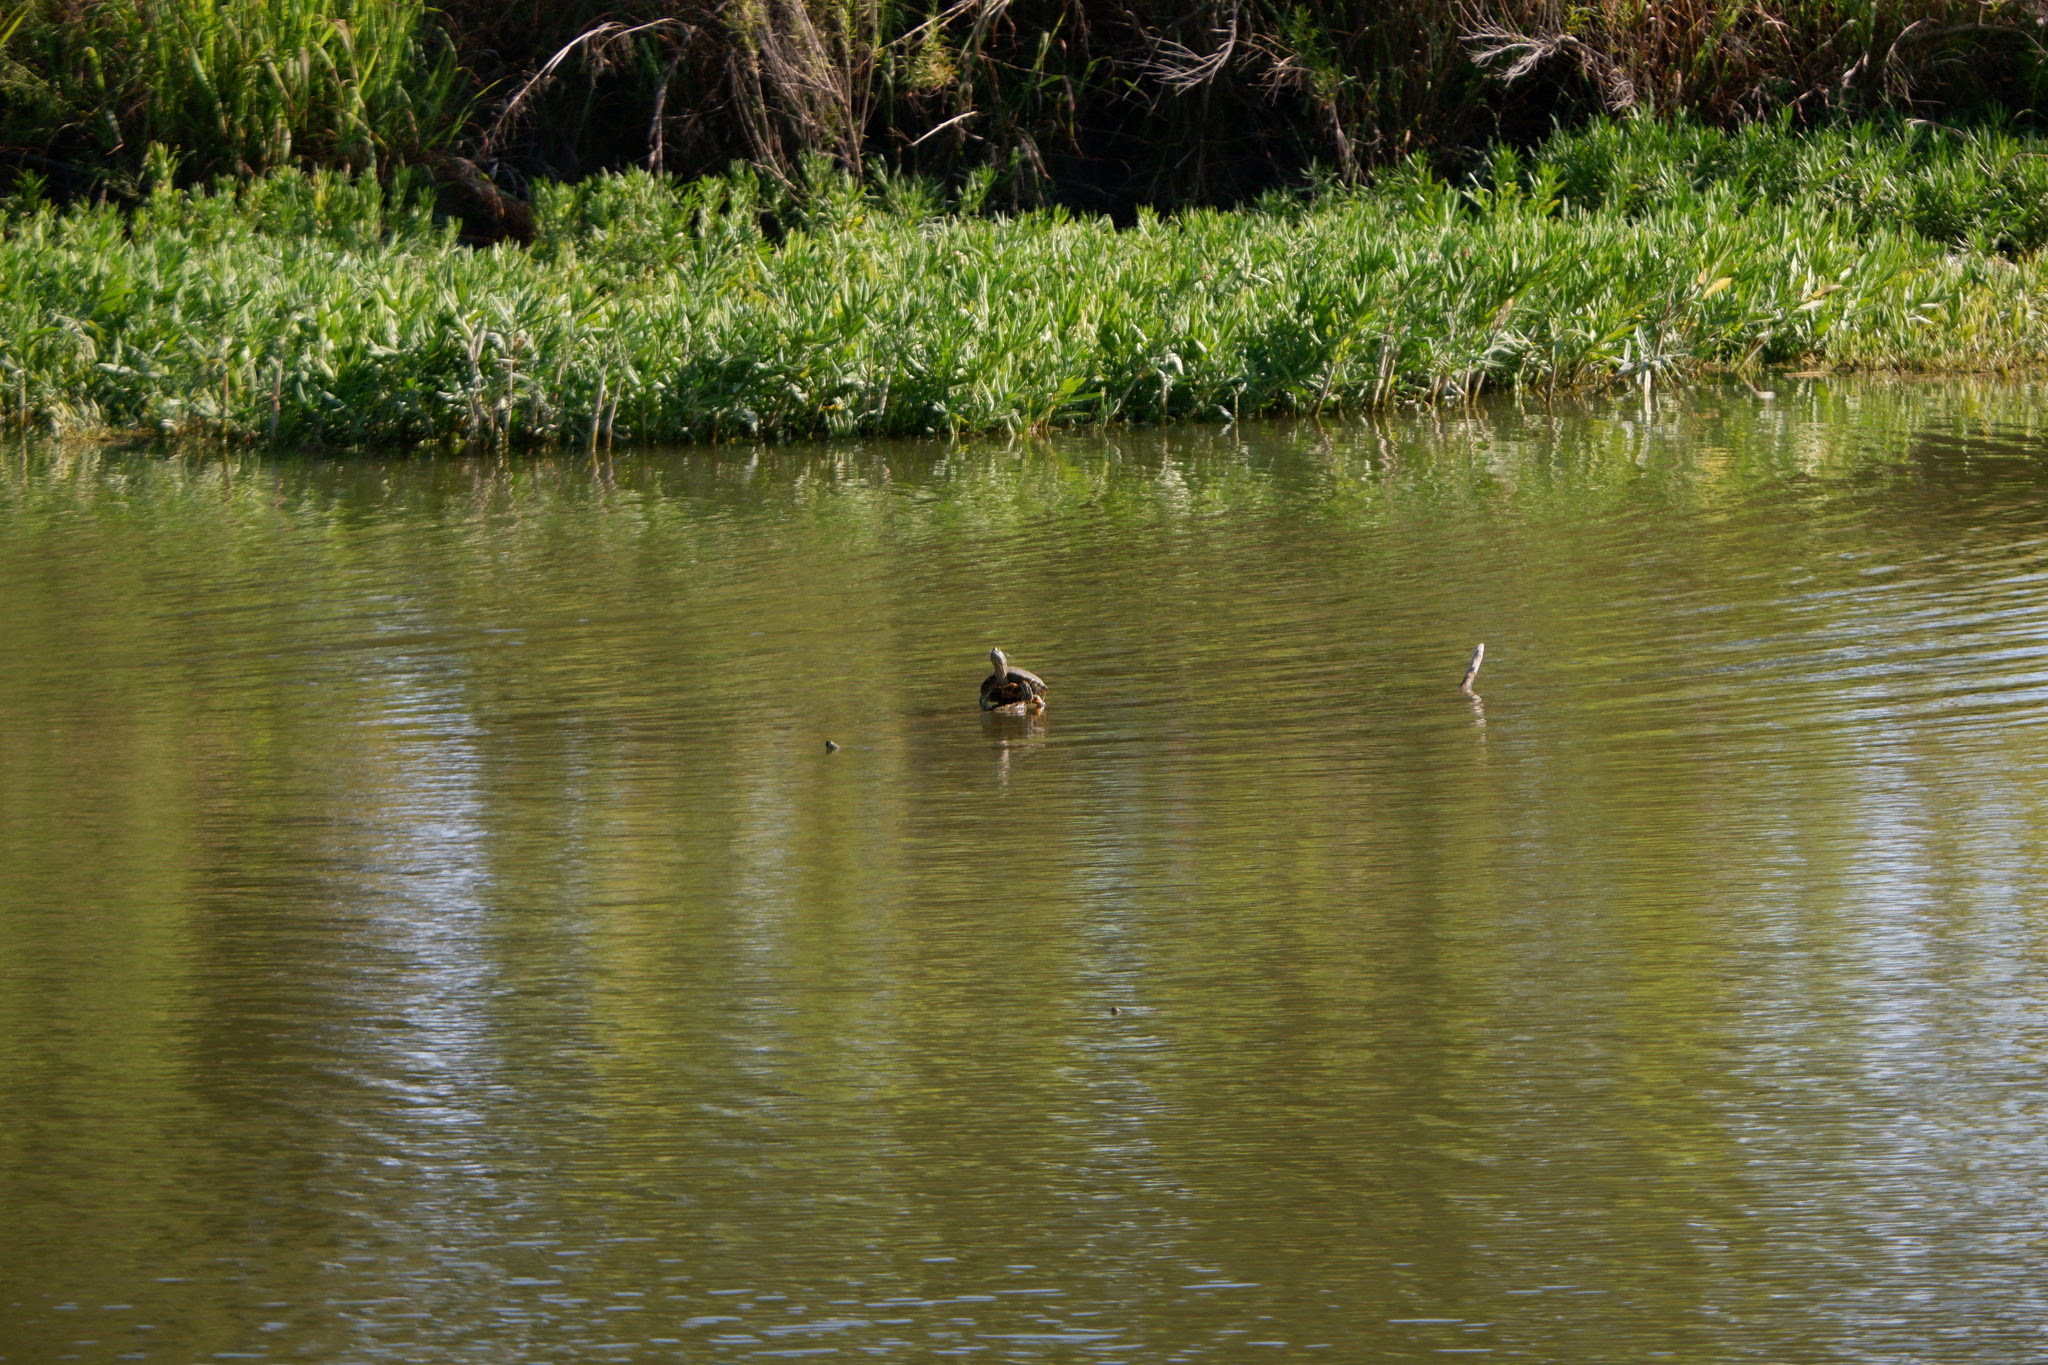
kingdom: Animalia
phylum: Chordata
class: Testudines
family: Emydidae
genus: Trachemys
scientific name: Trachemys scripta
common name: Slider
